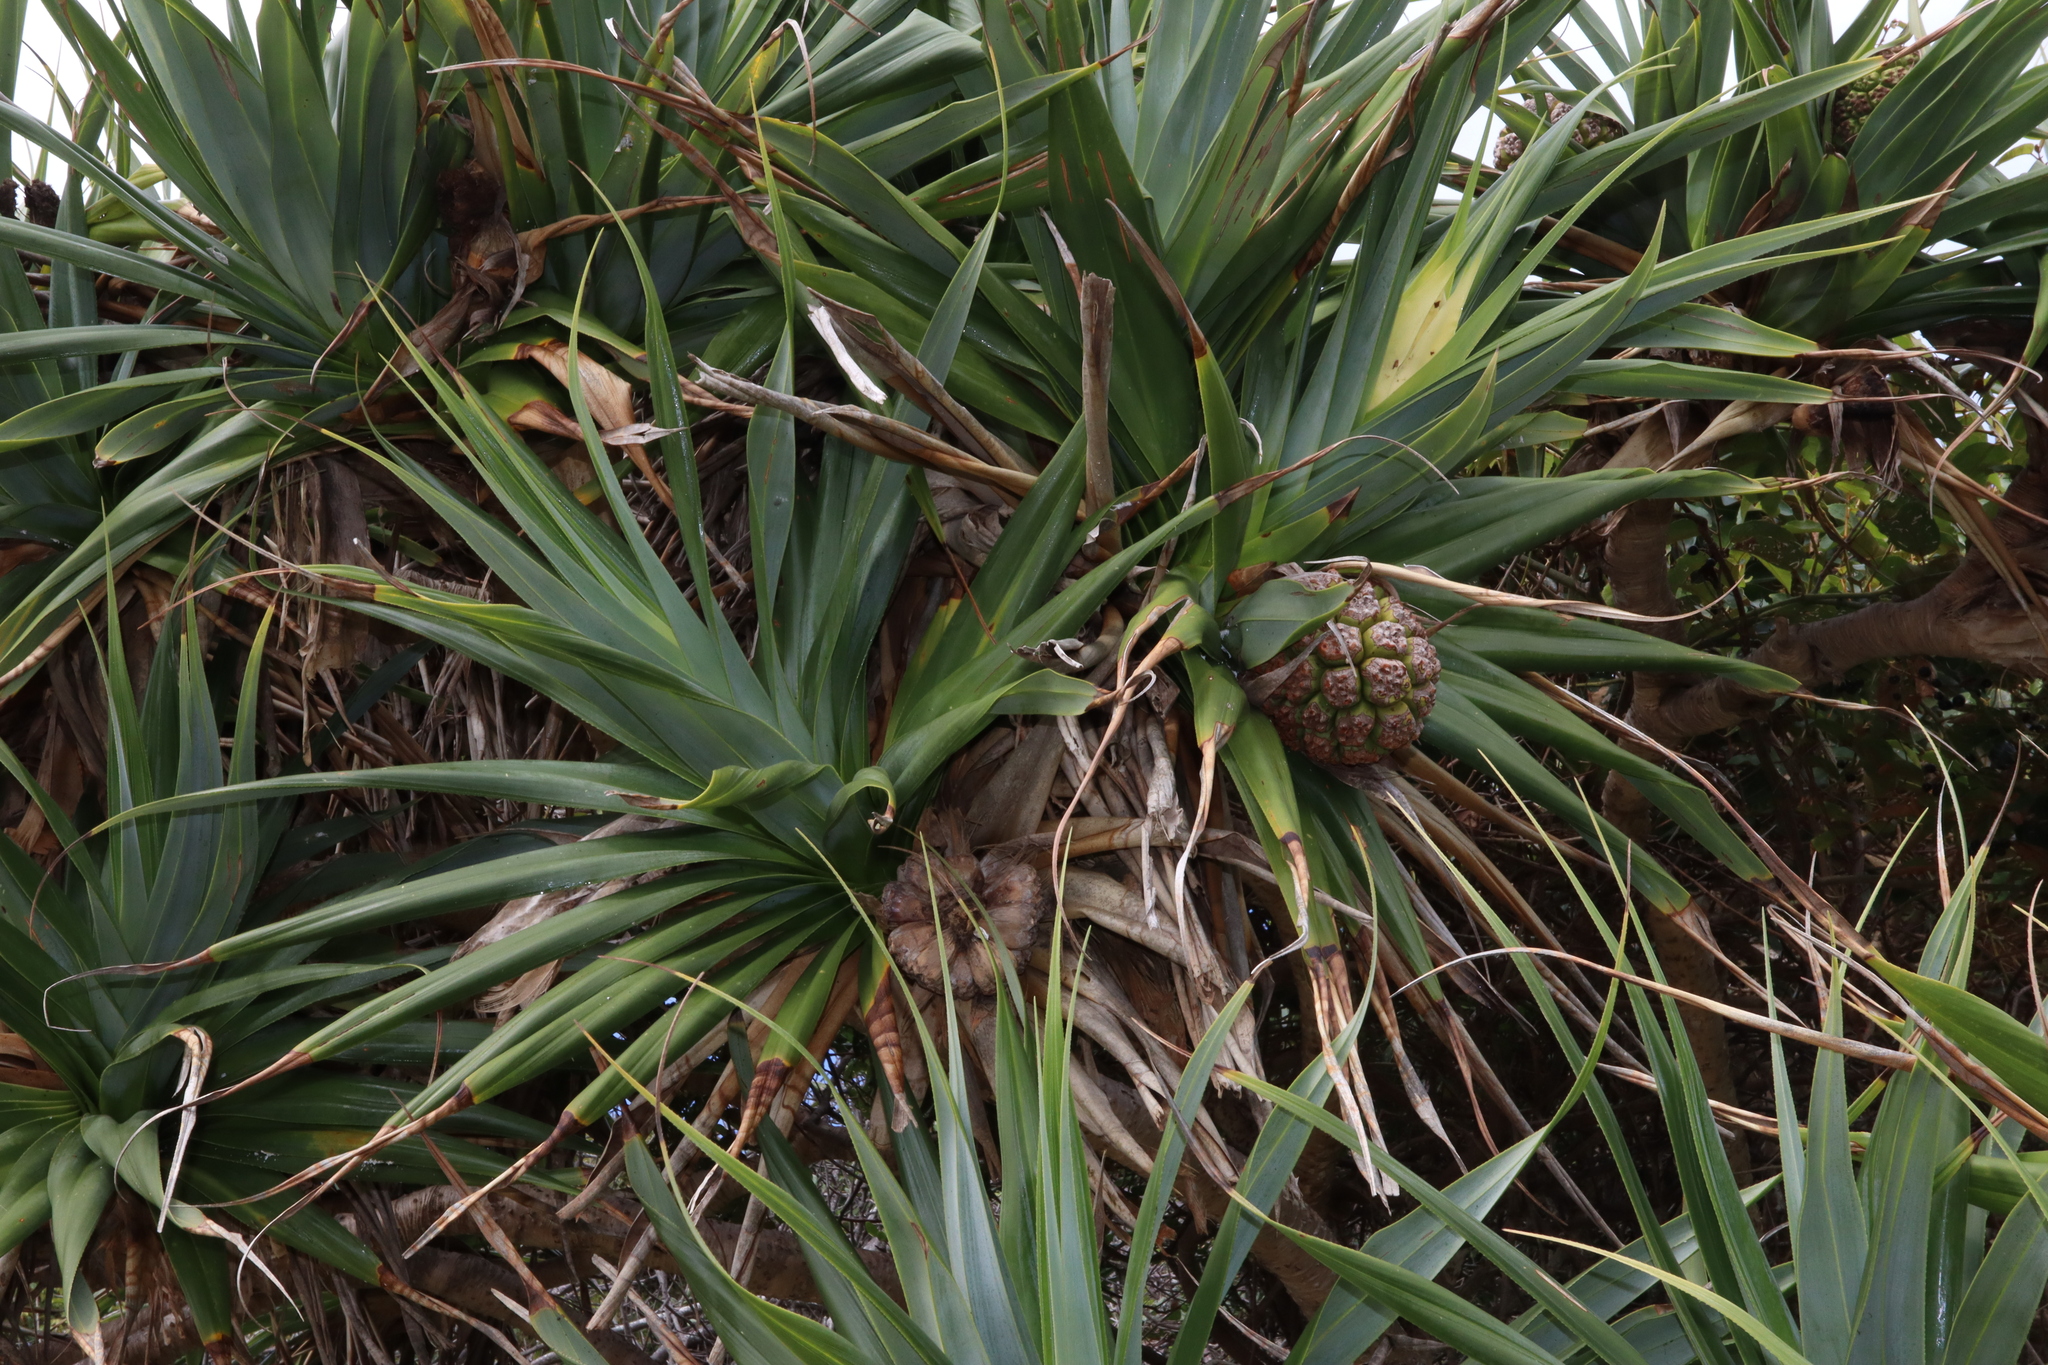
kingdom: Plantae
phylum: Tracheophyta
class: Liliopsida
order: Pandanales
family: Pandanaceae
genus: Pandanus
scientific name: Pandanus tectorius
